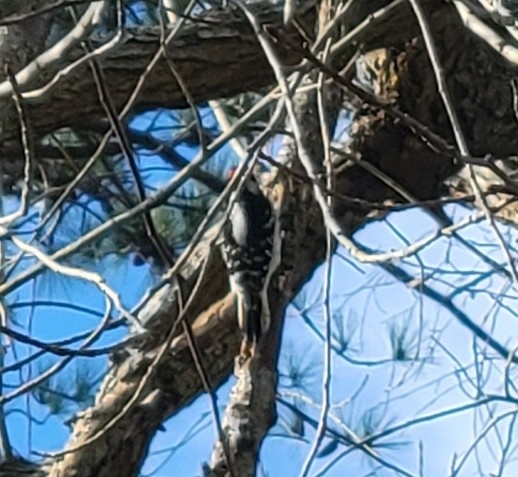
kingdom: Animalia
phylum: Chordata
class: Aves
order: Piciformes
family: Picidae
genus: Dryobates
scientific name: Dryobates pubescens
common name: Downy woodpecker
